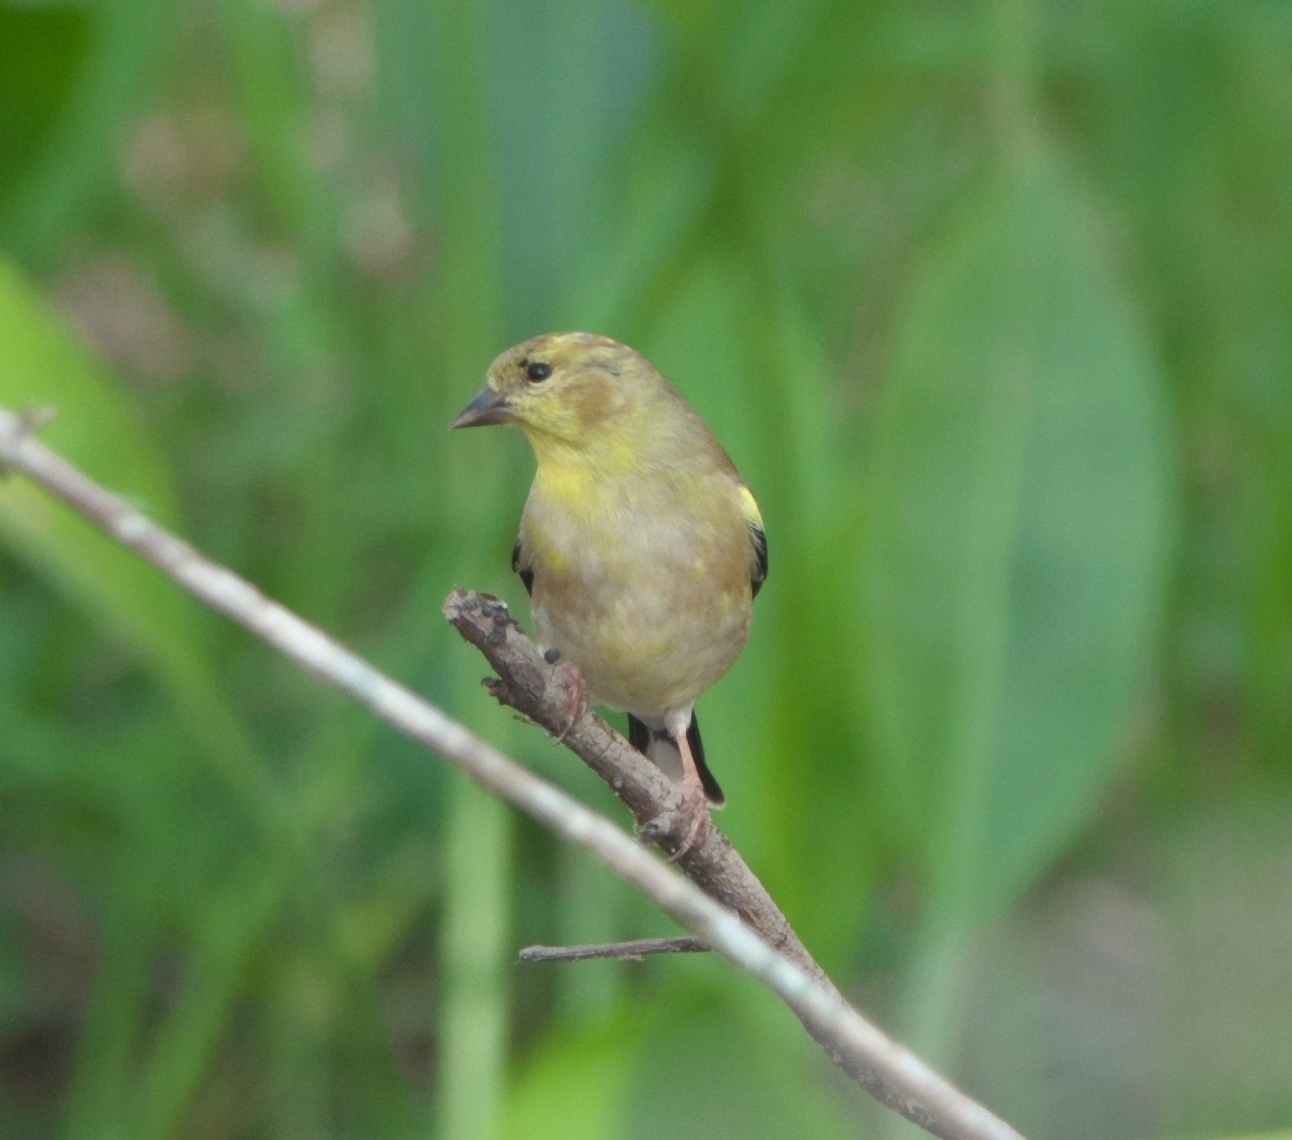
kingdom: Animalia
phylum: Chordata
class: Aves
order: Passeriformes
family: Fringillidae
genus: Spinus
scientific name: Spinus tristis
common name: American goldfinch
